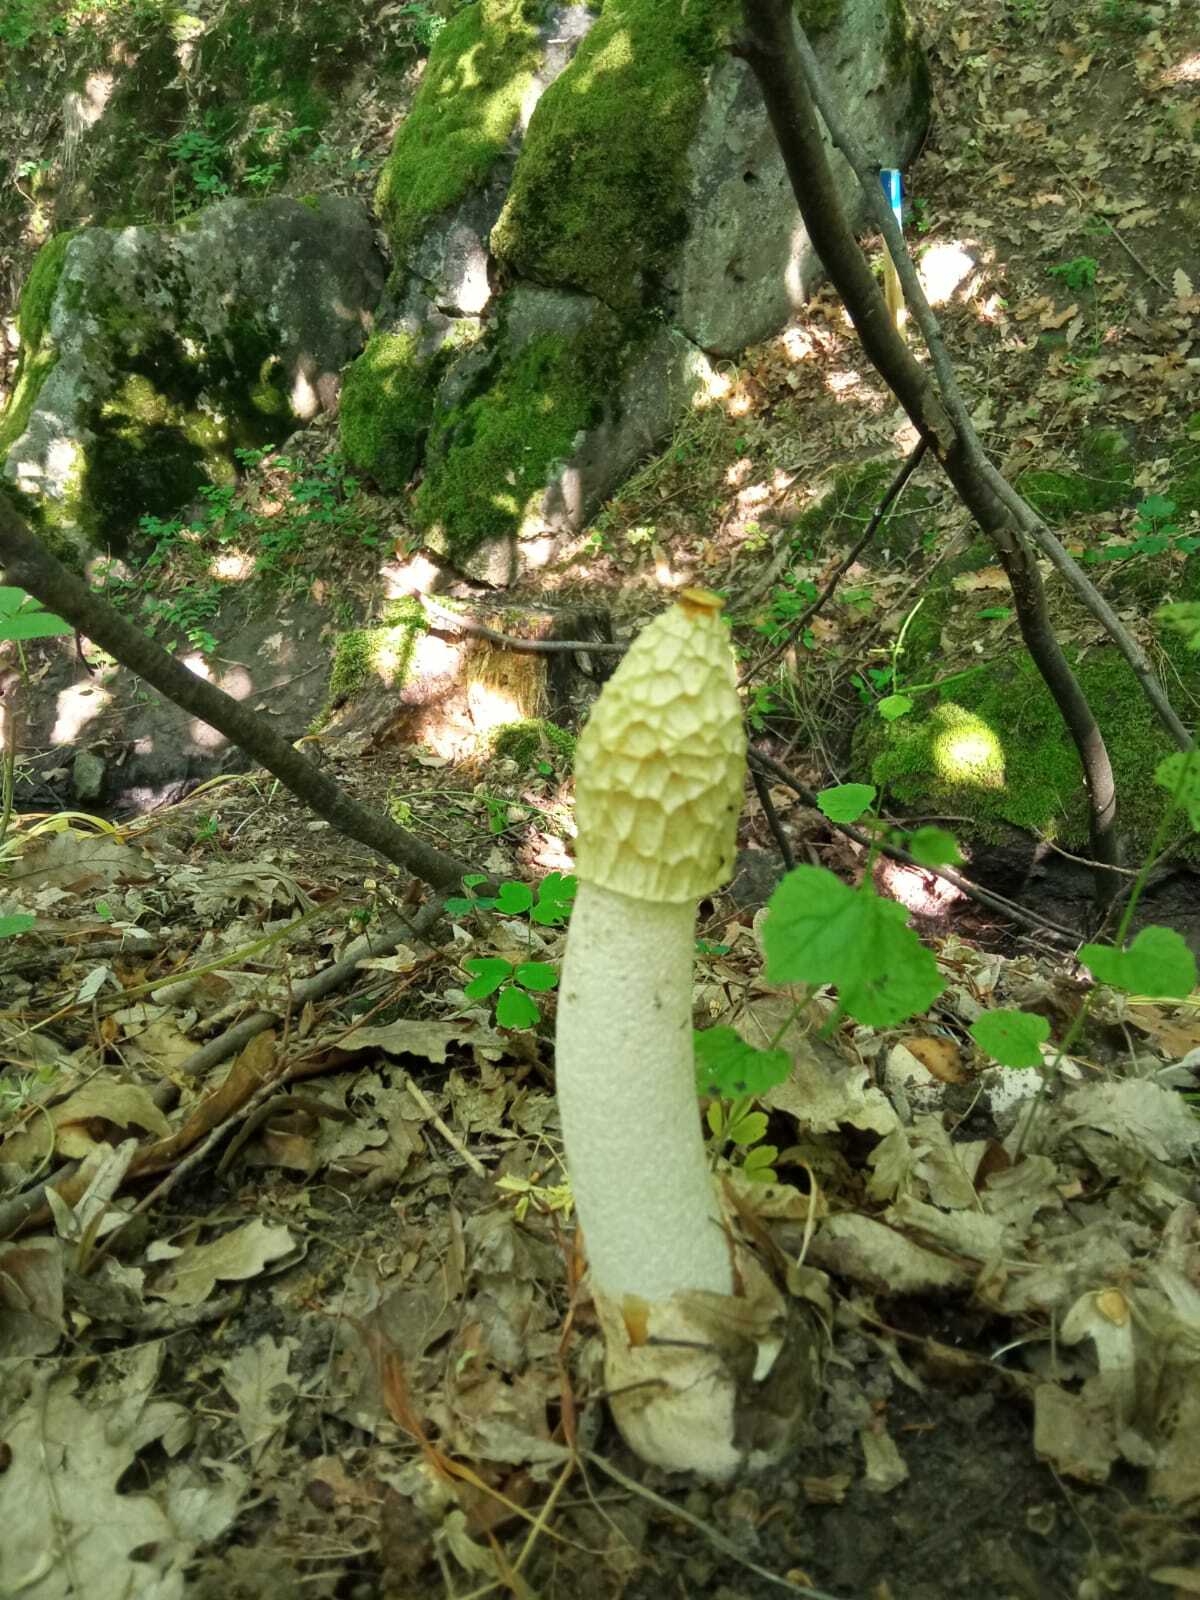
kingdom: Fungi
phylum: Basidiomycota
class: Agaricomycetes
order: Phallales
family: Phallaceae
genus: Phallus
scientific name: Phallus impudicus
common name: Common stinkhorn
